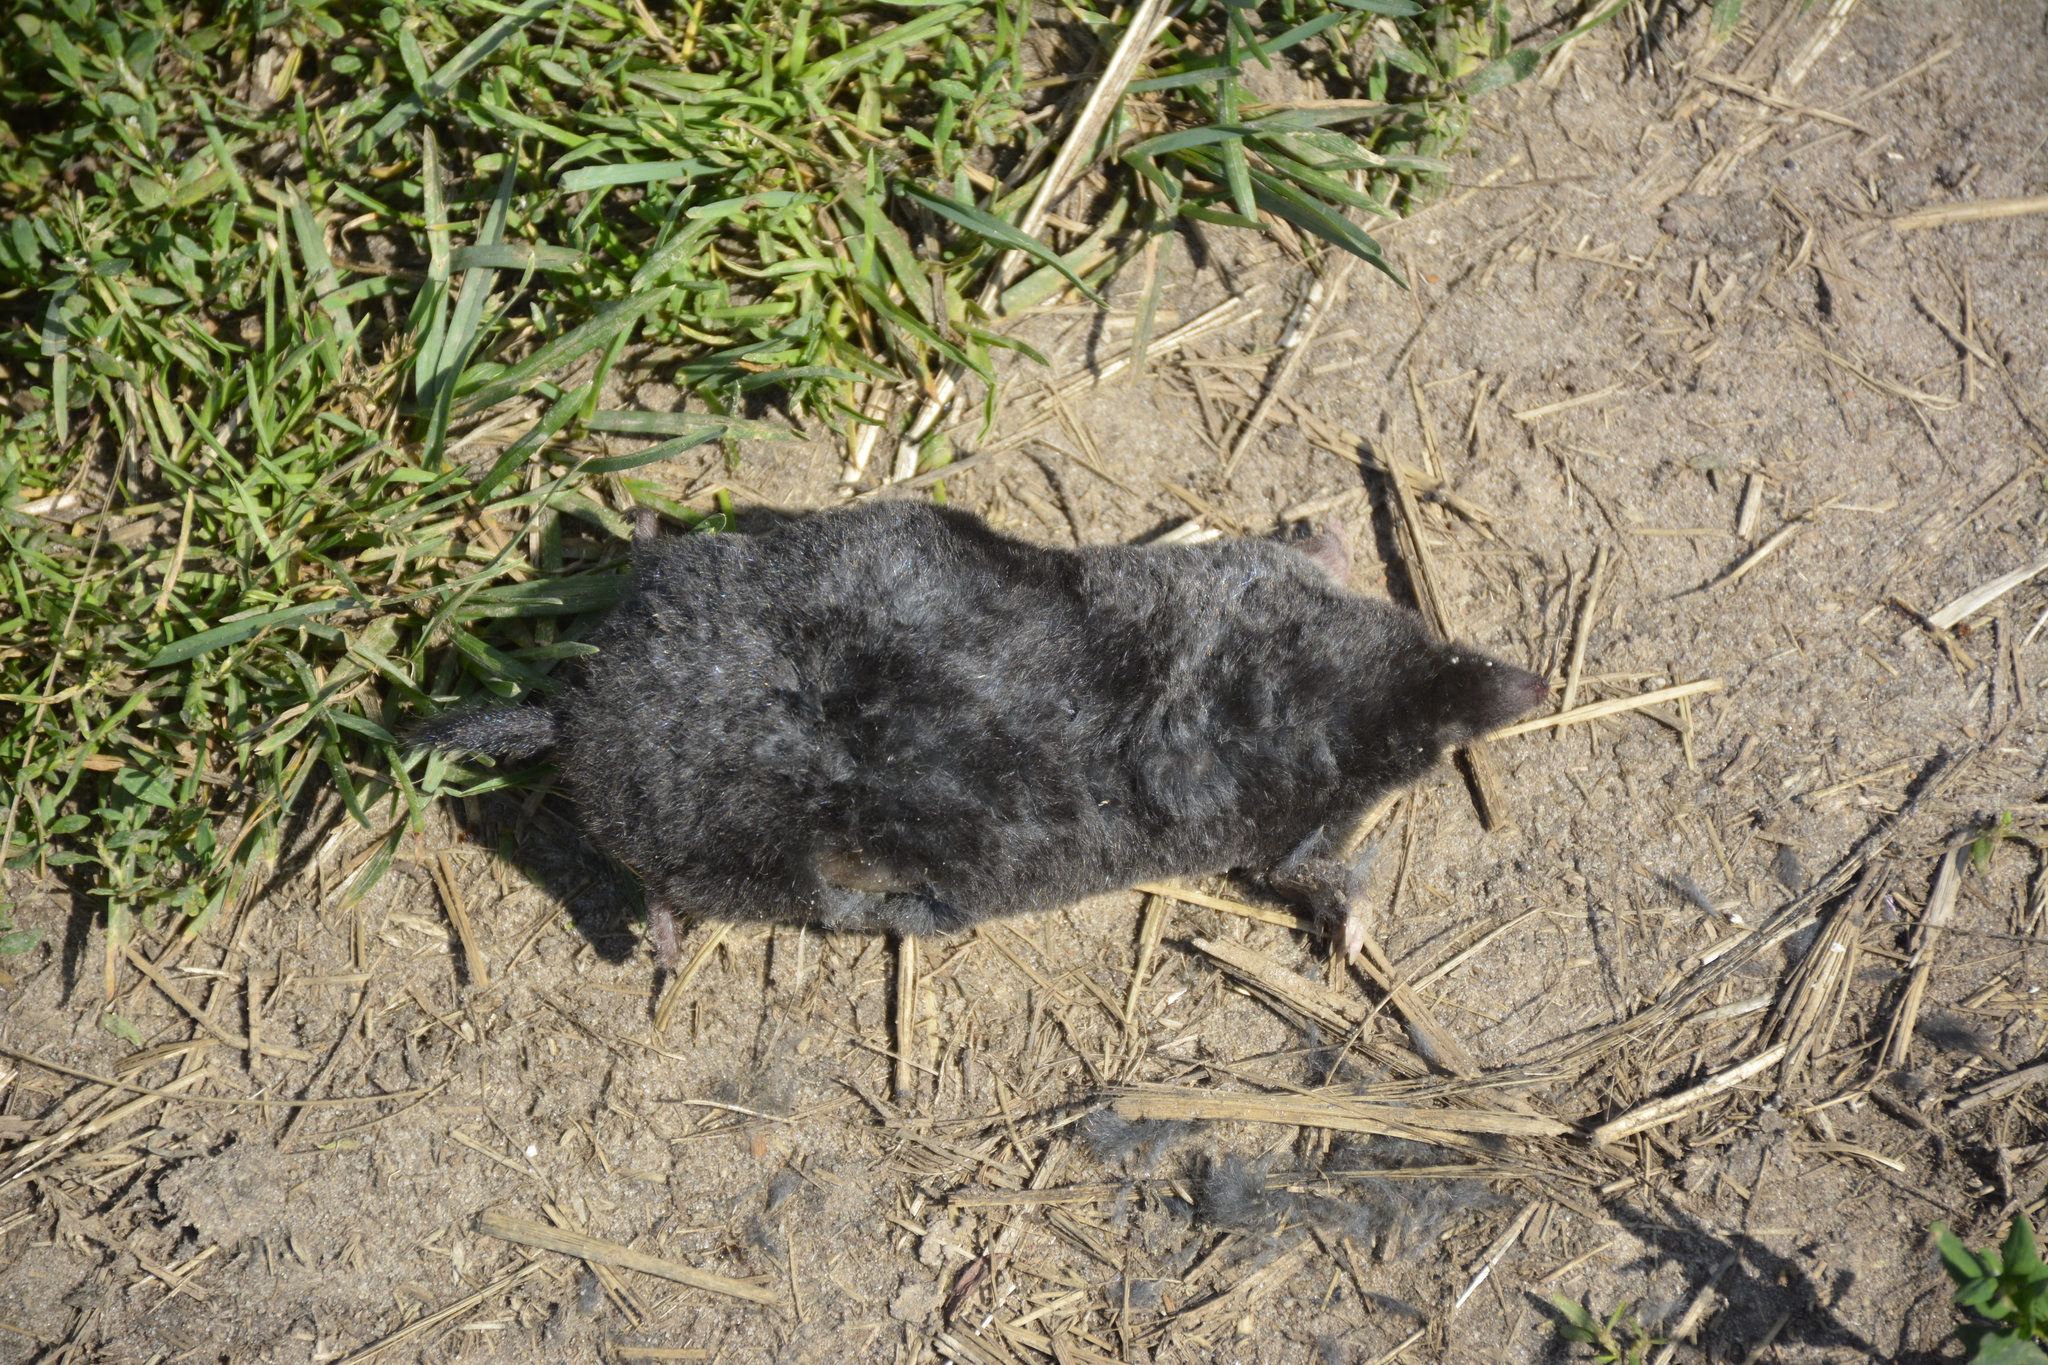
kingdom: Animalia
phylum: Chordata
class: Mammalia
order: Soricomorpha
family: Talpidae
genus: Talpa
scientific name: Talpa europaea
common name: European mole
